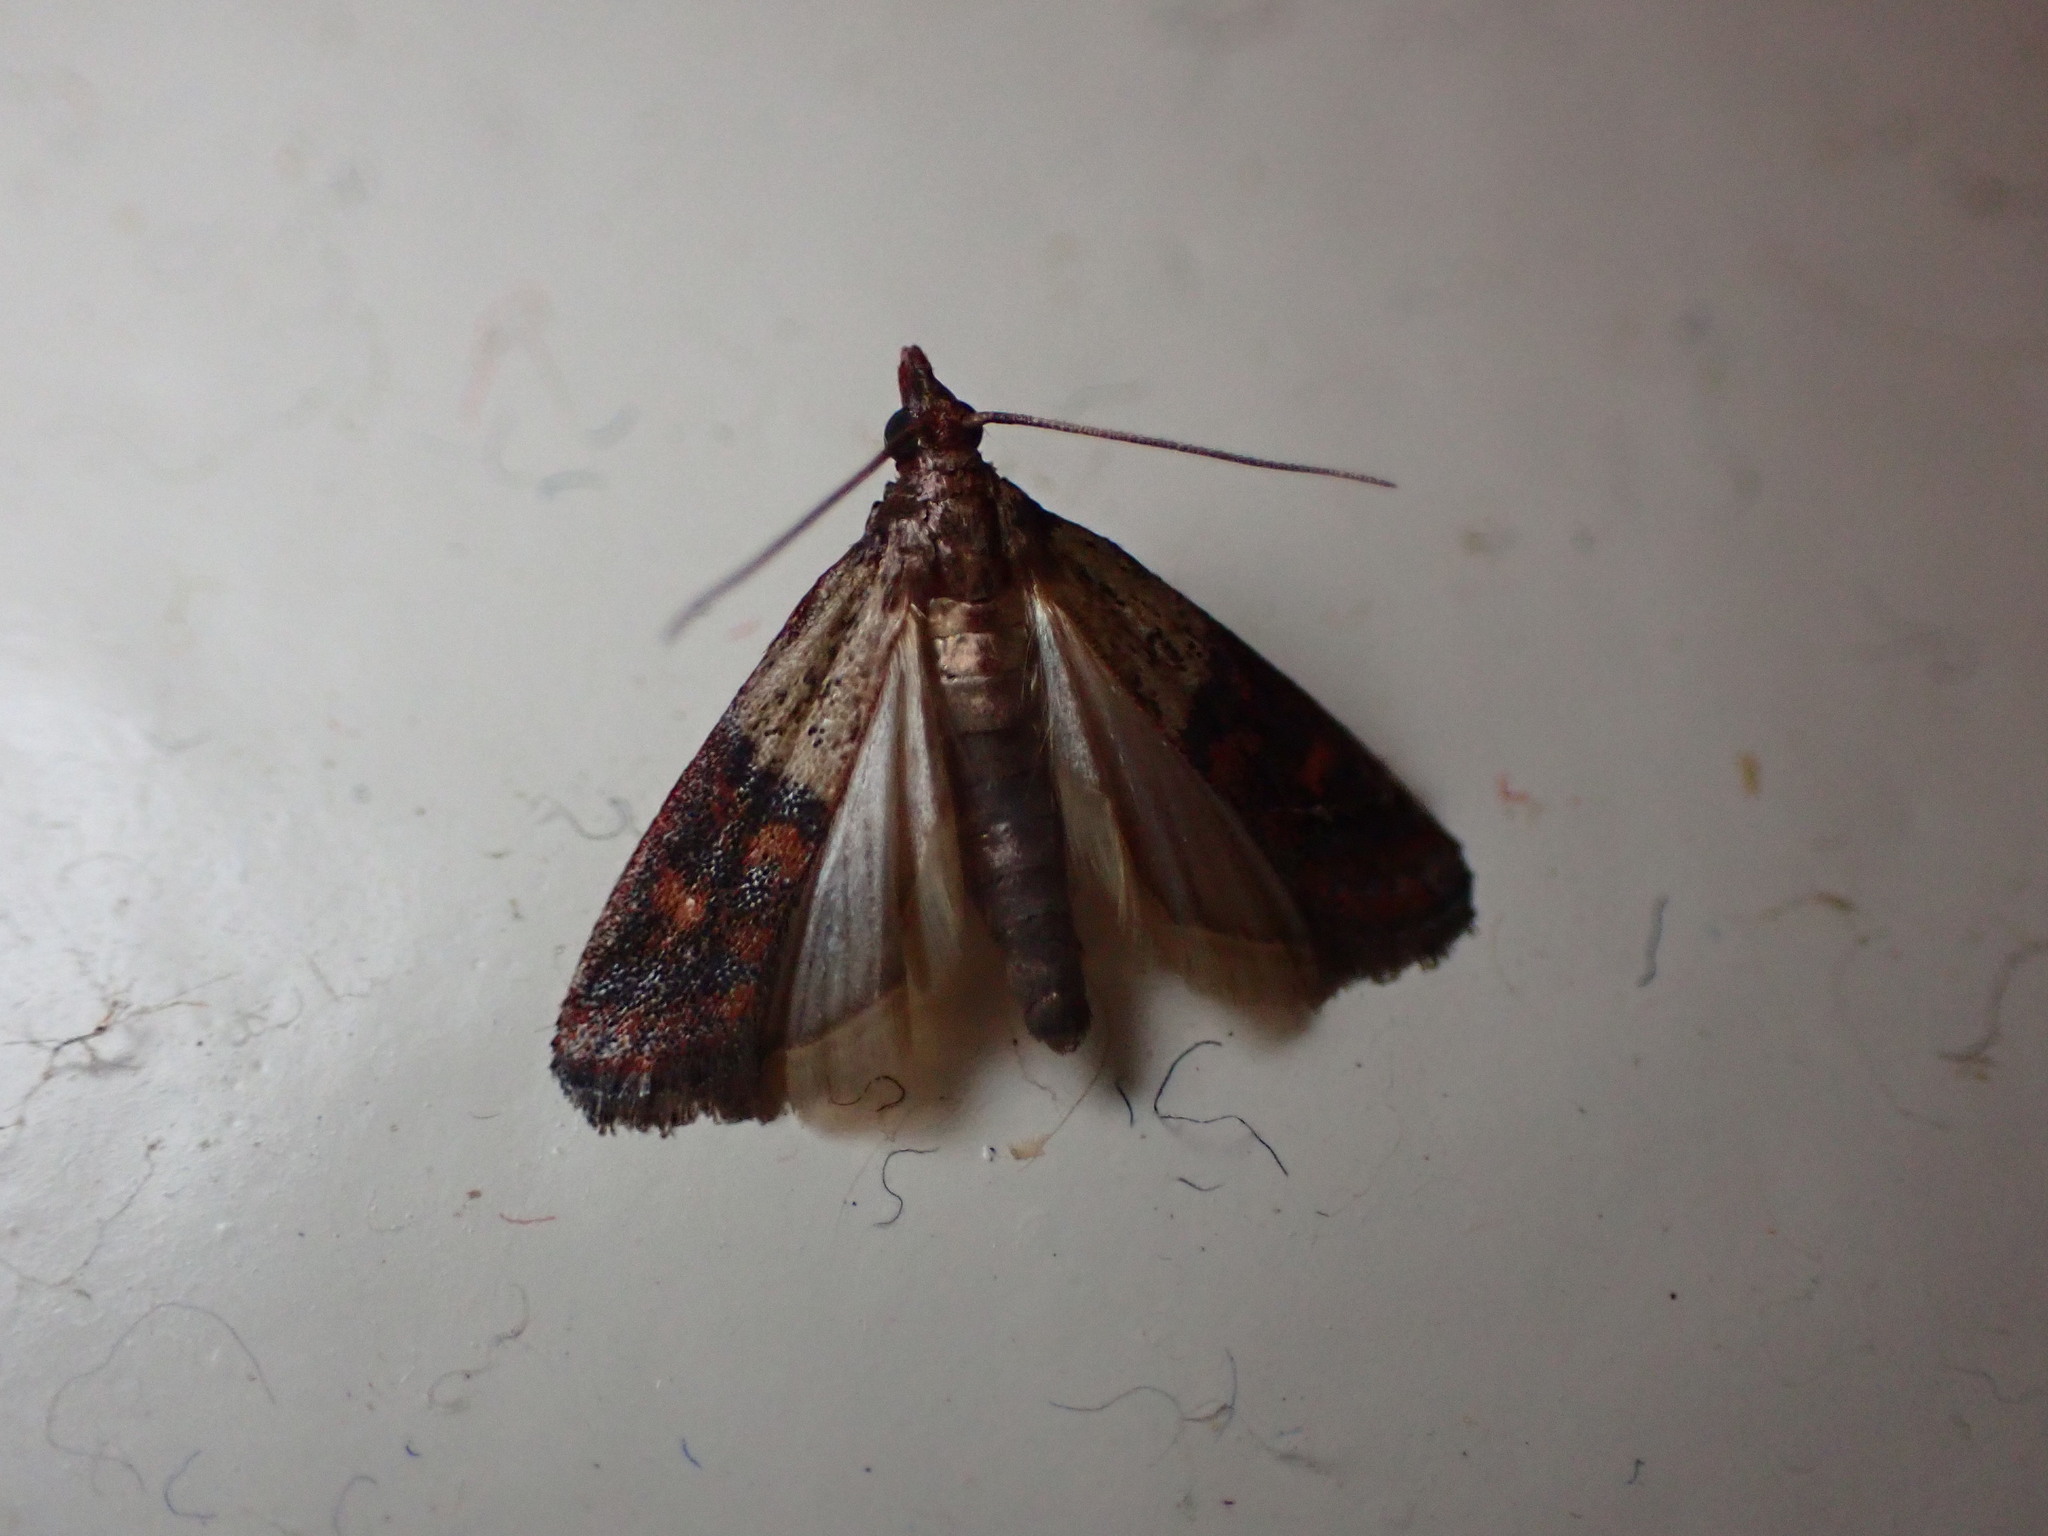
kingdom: Animalia
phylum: Arthropoda
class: Insecta
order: Lepidoptera
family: Pyralidae
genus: Plodia
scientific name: Plodia interpunctella
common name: Indian meal moth
